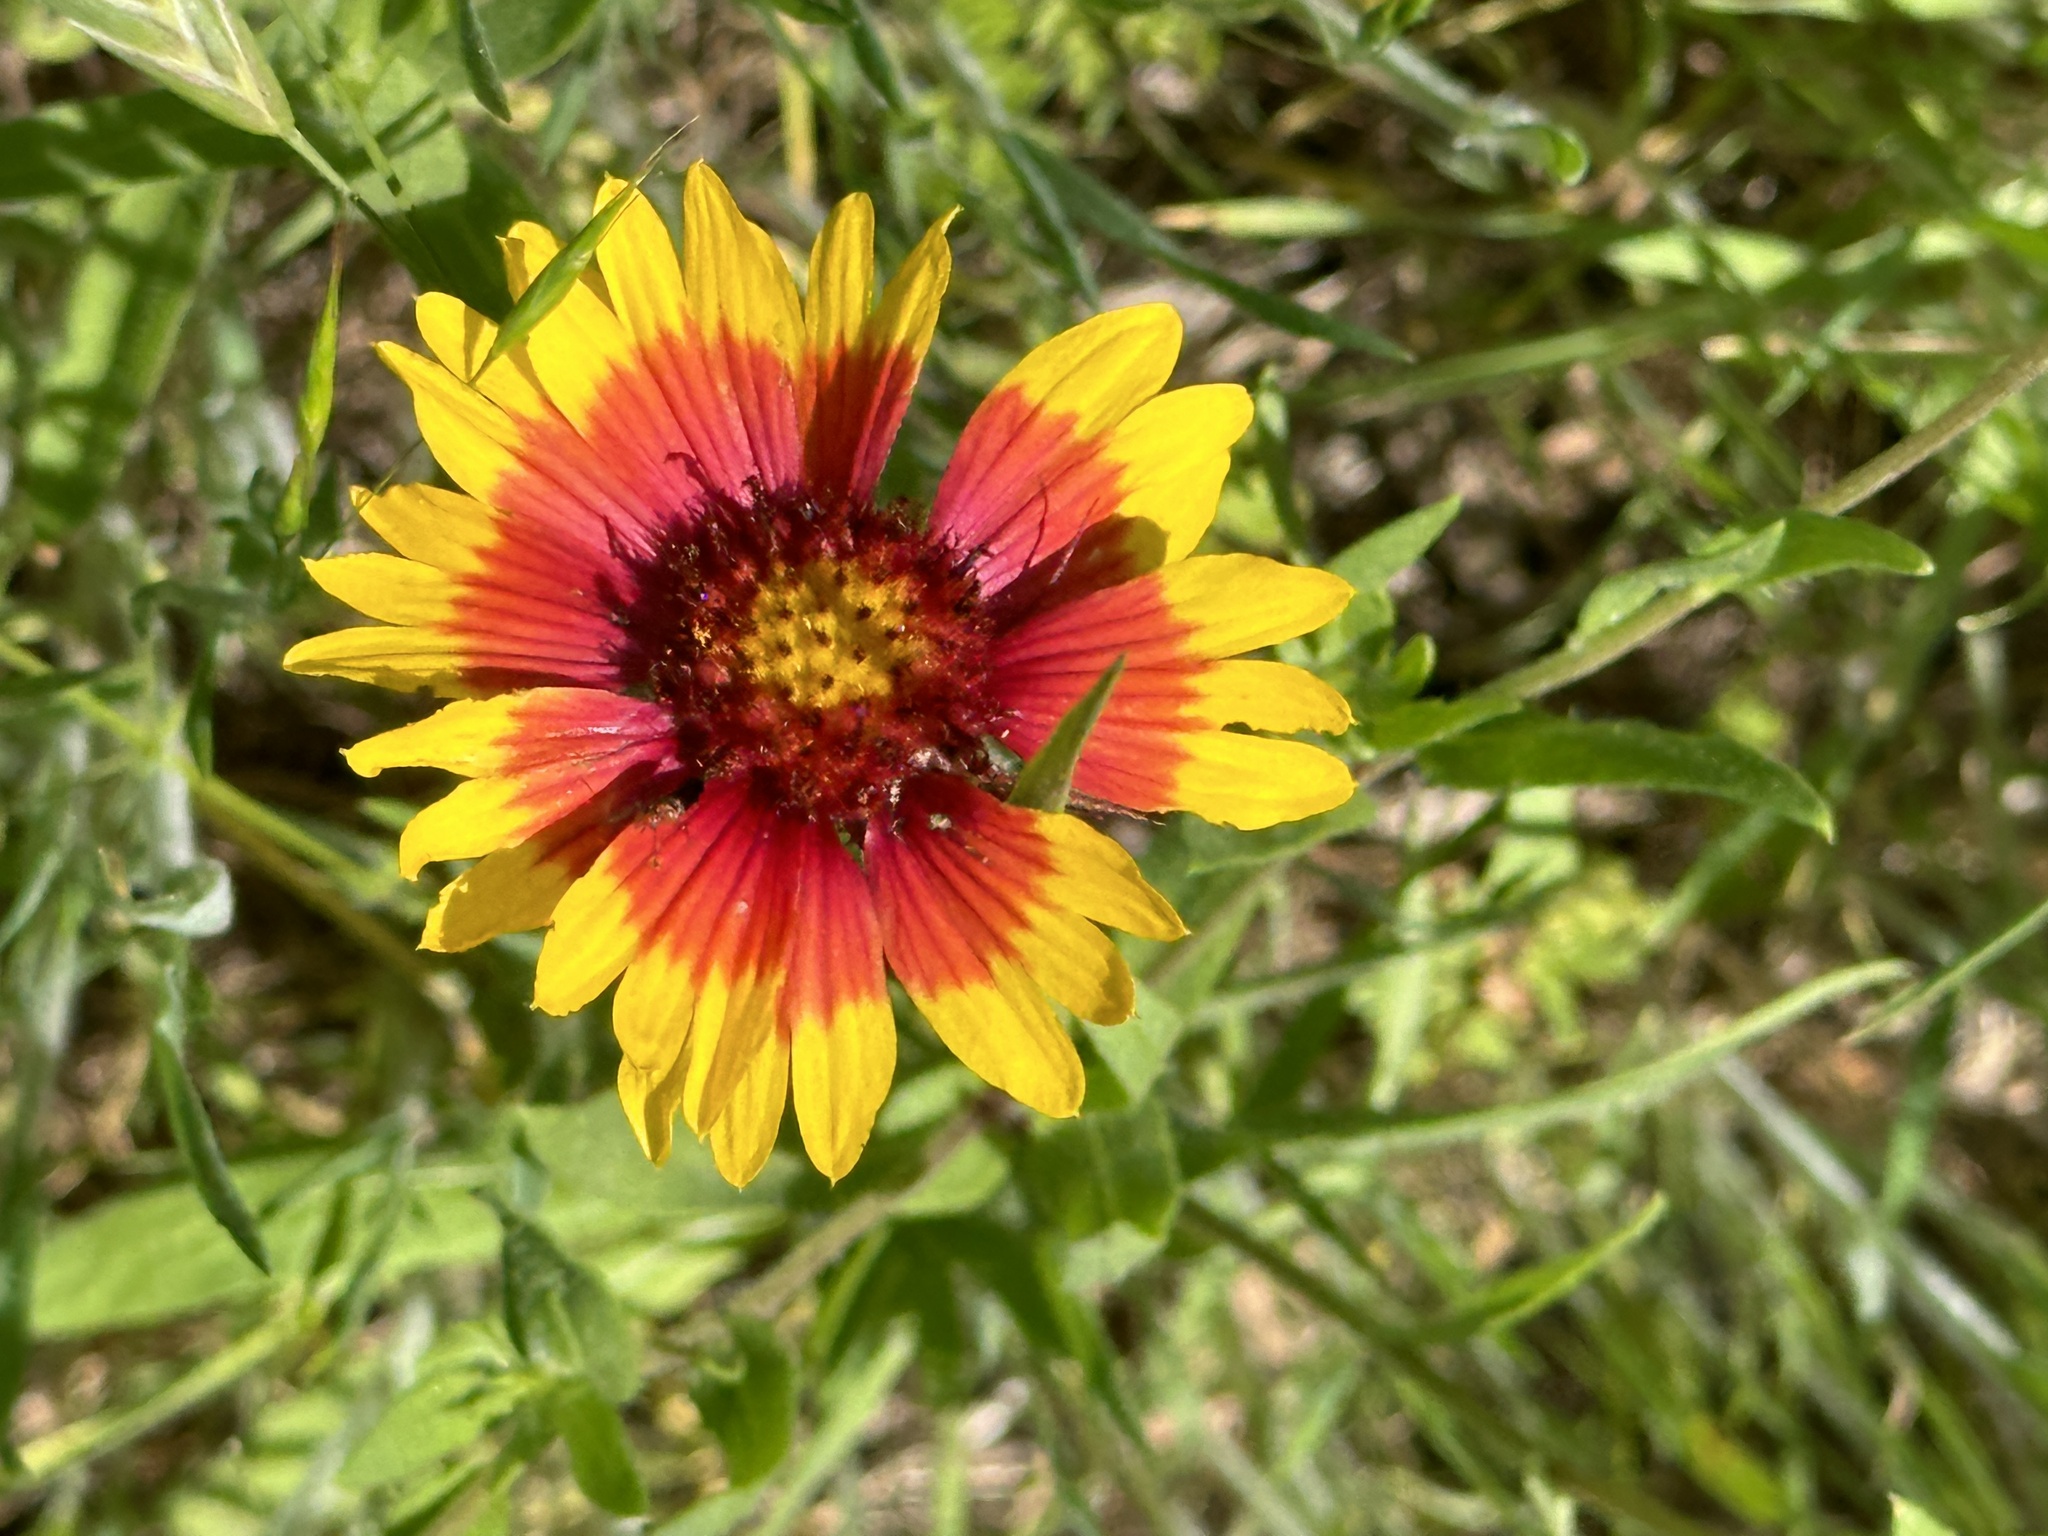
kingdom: Plantae
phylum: Tracheophyta
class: Magnoliopsida
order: Asterales
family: Asteraceae
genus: Gaillardia
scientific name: Gaillardia pulchella
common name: Firewheel
